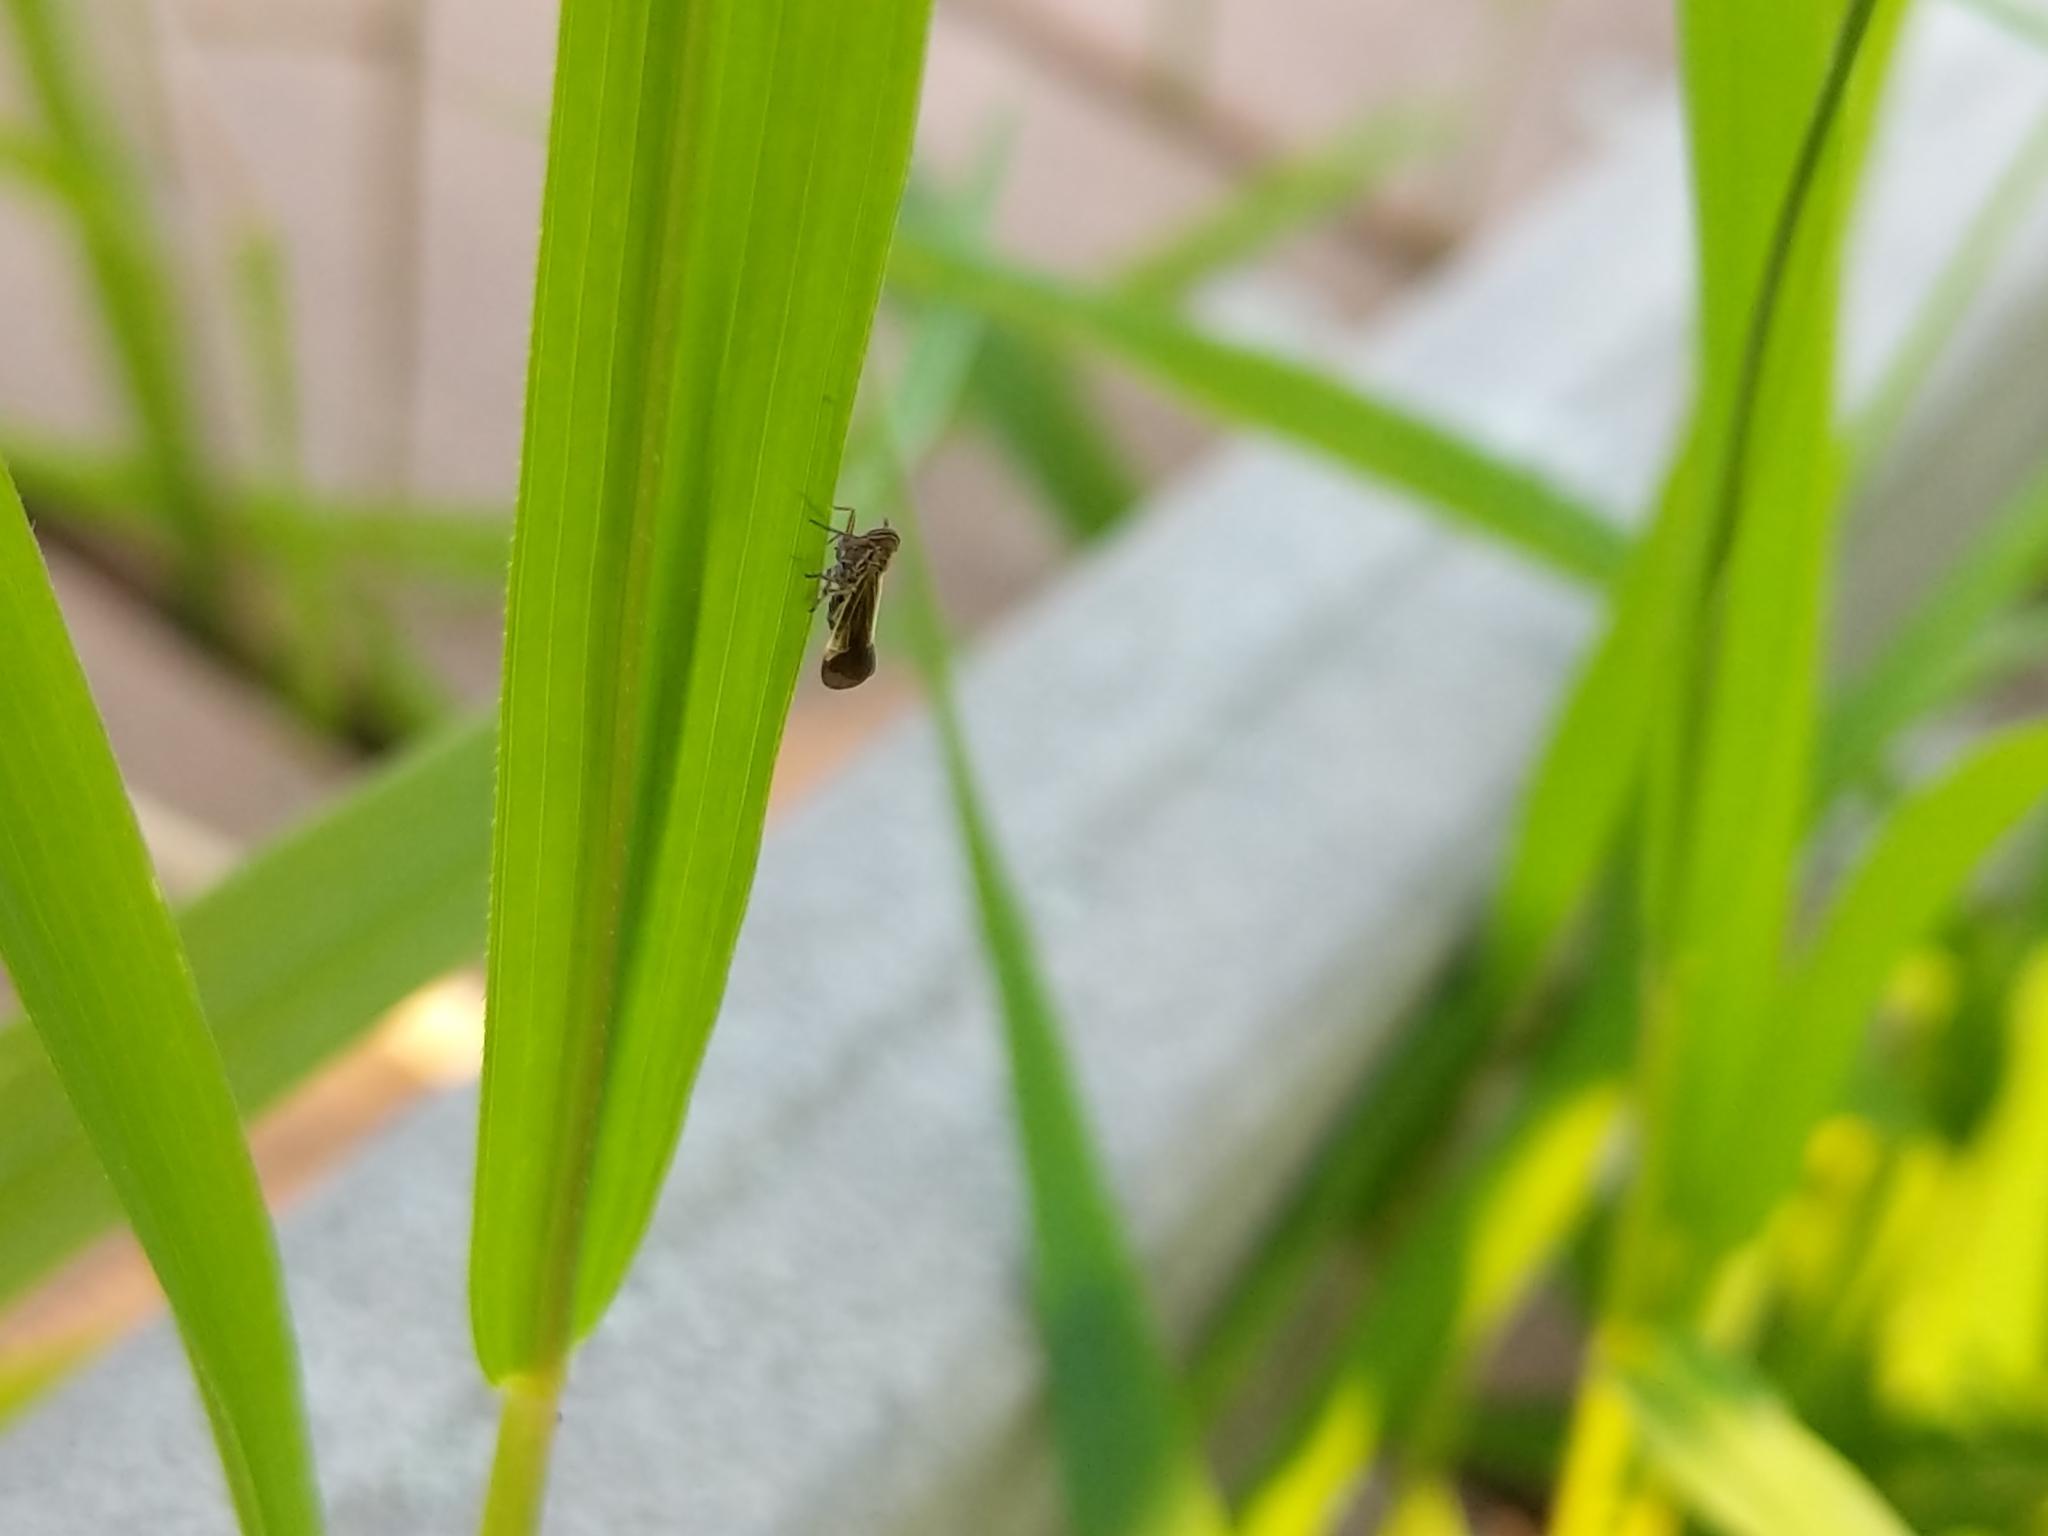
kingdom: Animalia
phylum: Arthropoda
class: Insecta
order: Hemiptera
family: Delphacidae
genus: Nothodelphax
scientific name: Nothodelphax slossonae
